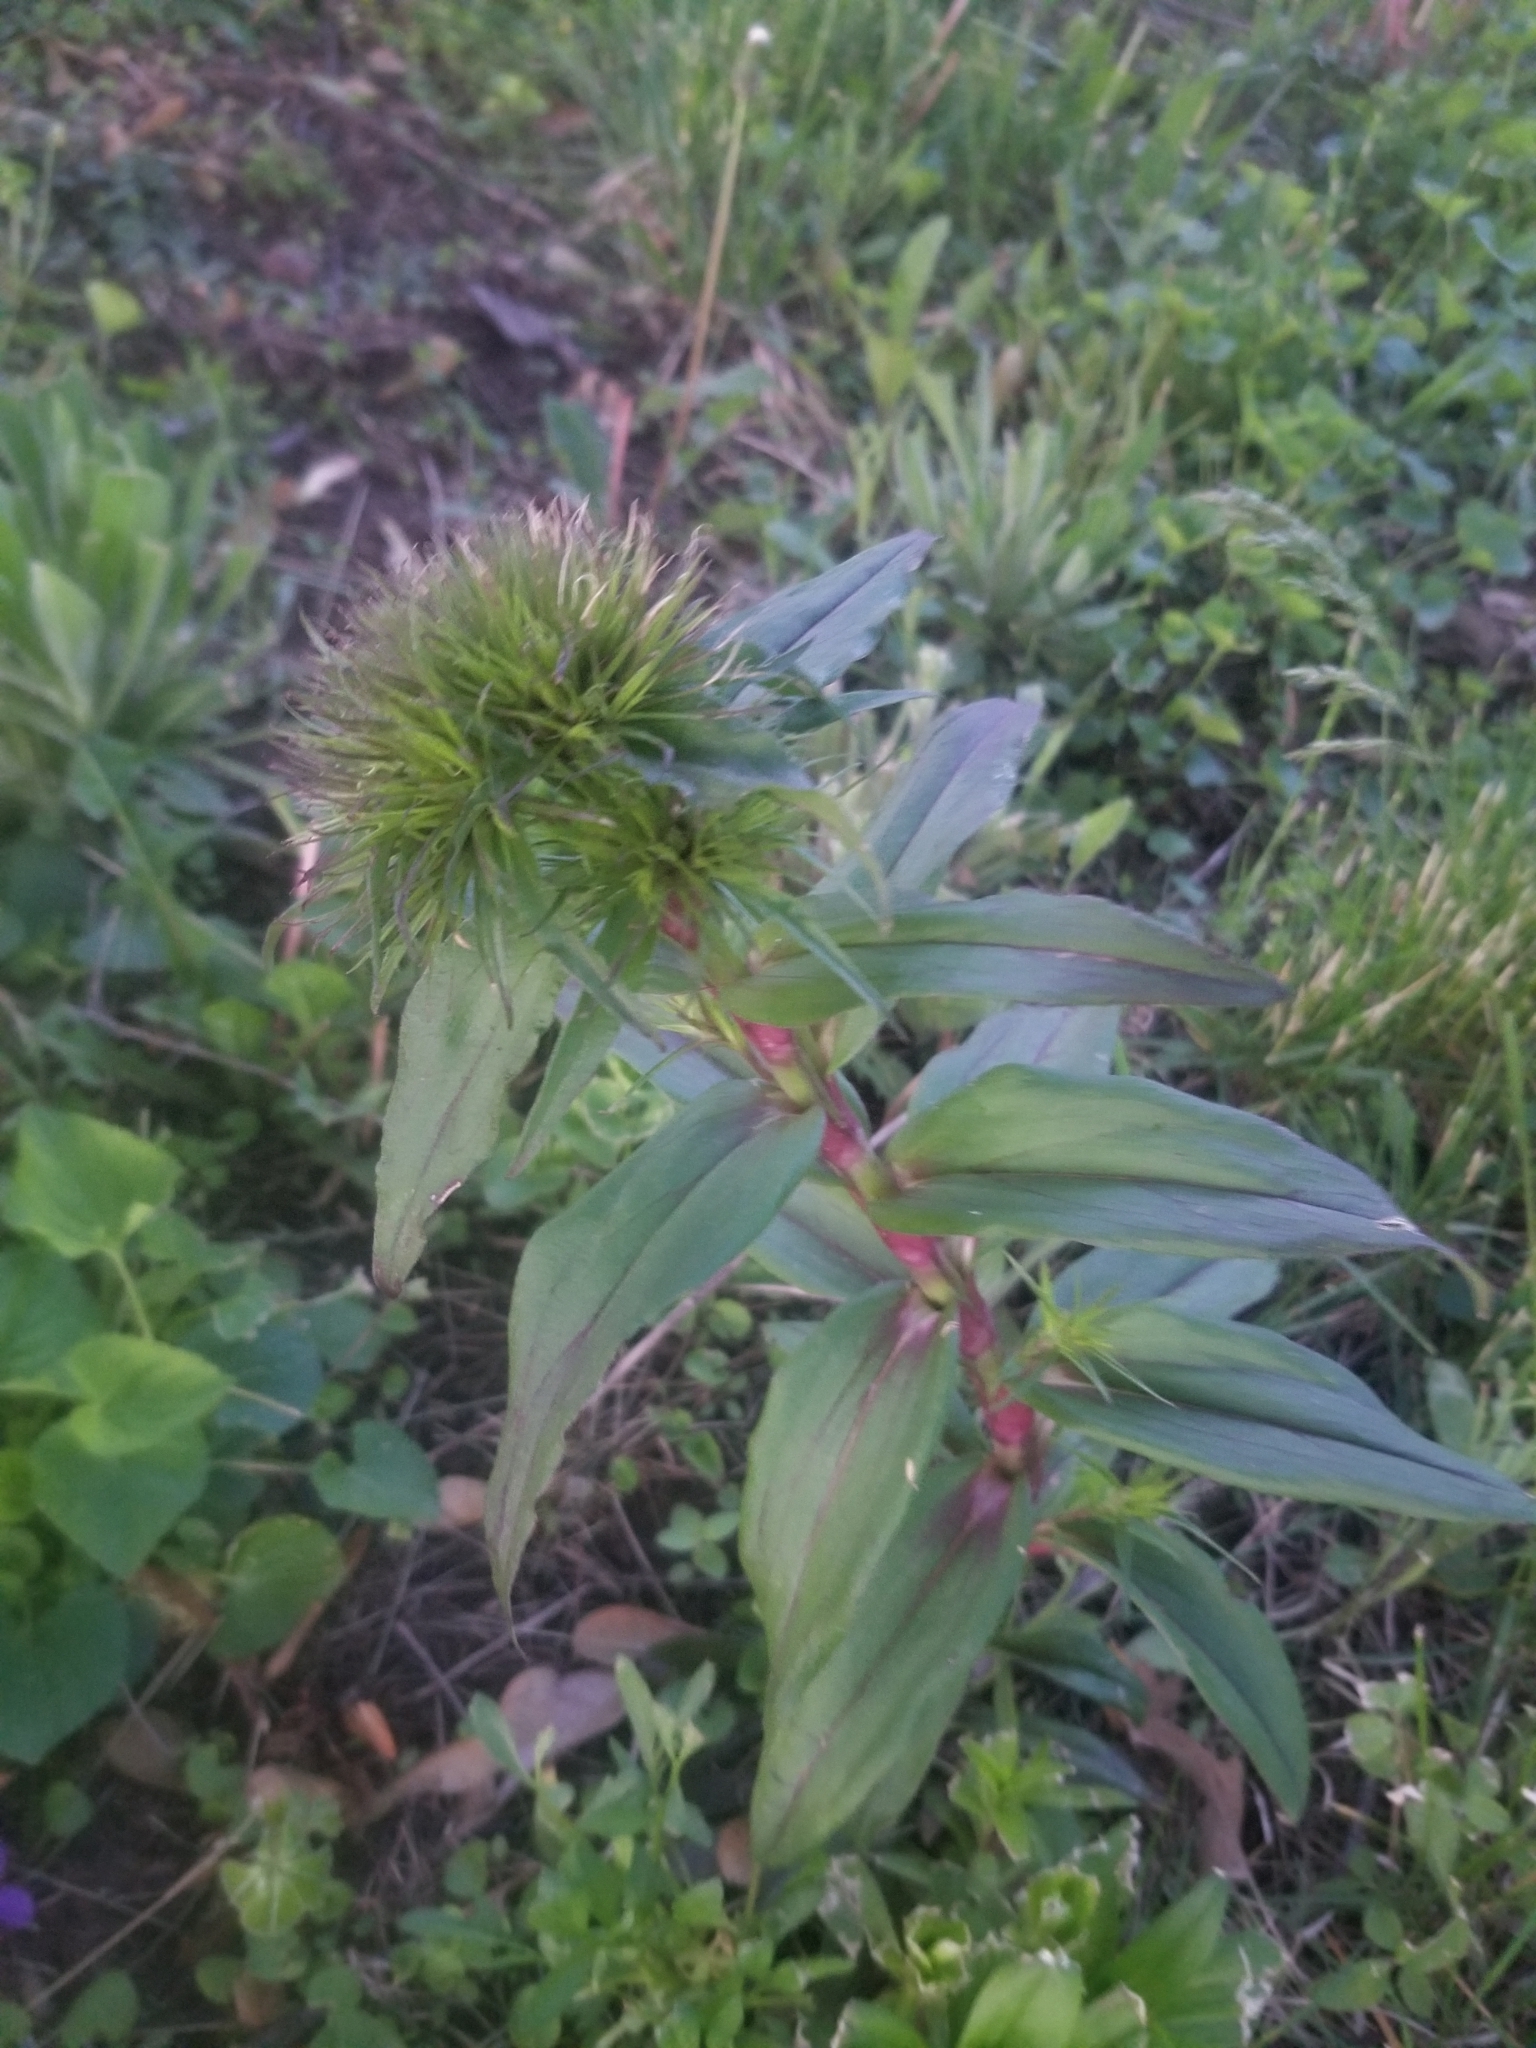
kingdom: Plantae
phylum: Tracheophyta
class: Magnoliopsida
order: Caryophyllales
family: Caryophyllaceae
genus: Dianthus
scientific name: Dianthus barbatus
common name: Sweet-william
